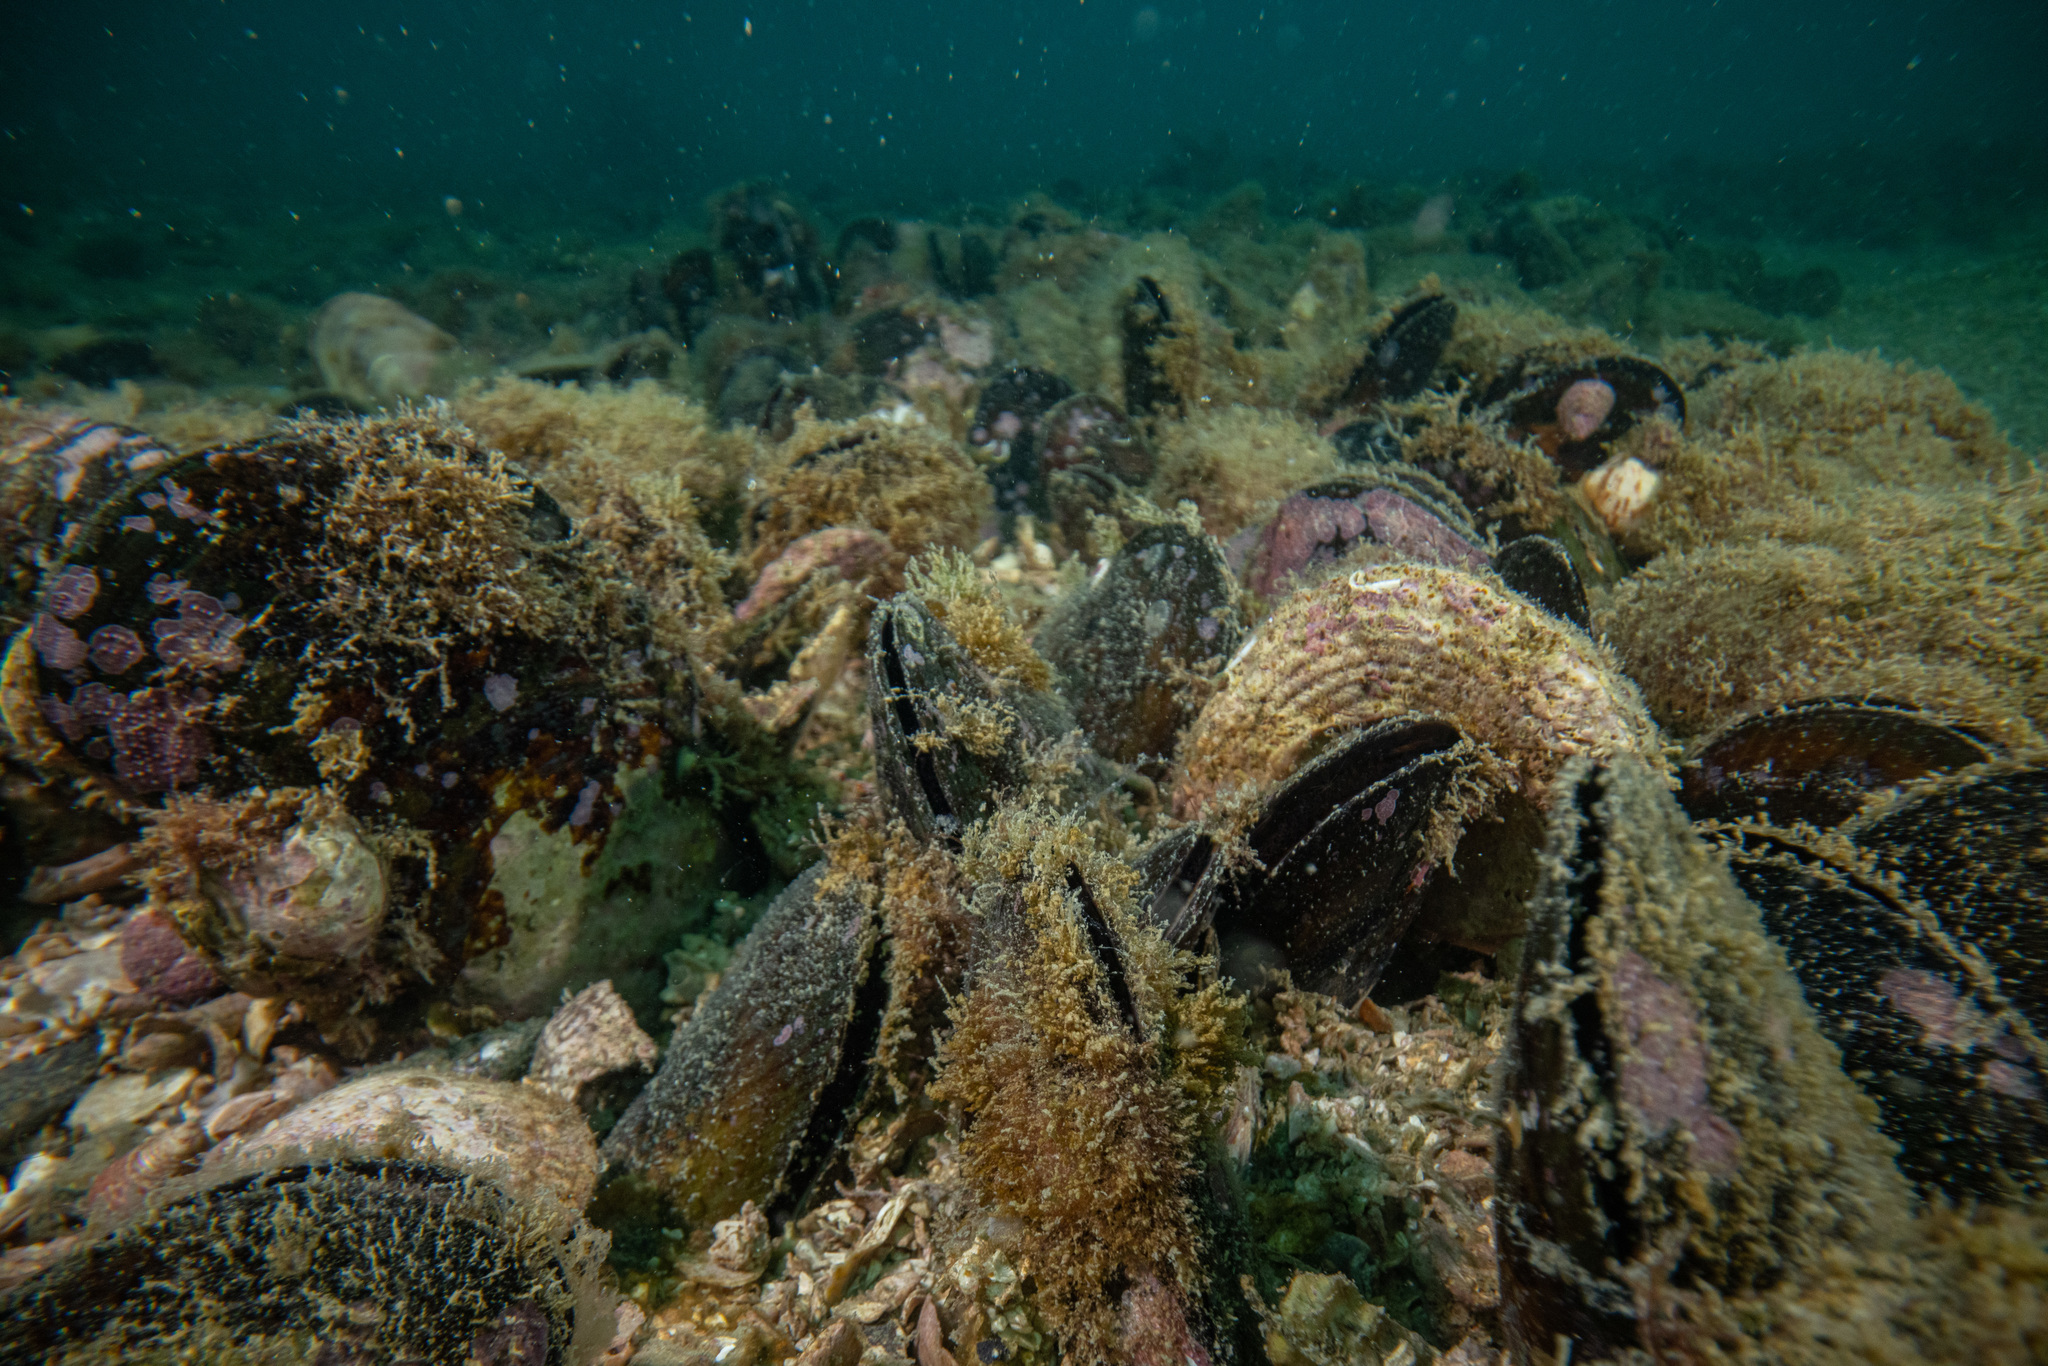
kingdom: Animalia
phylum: Mollusca
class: Bivalvia
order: Mytilida
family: Mytilidae
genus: Perna
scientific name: Perna canaliculus
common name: New zealand greenshelltm
